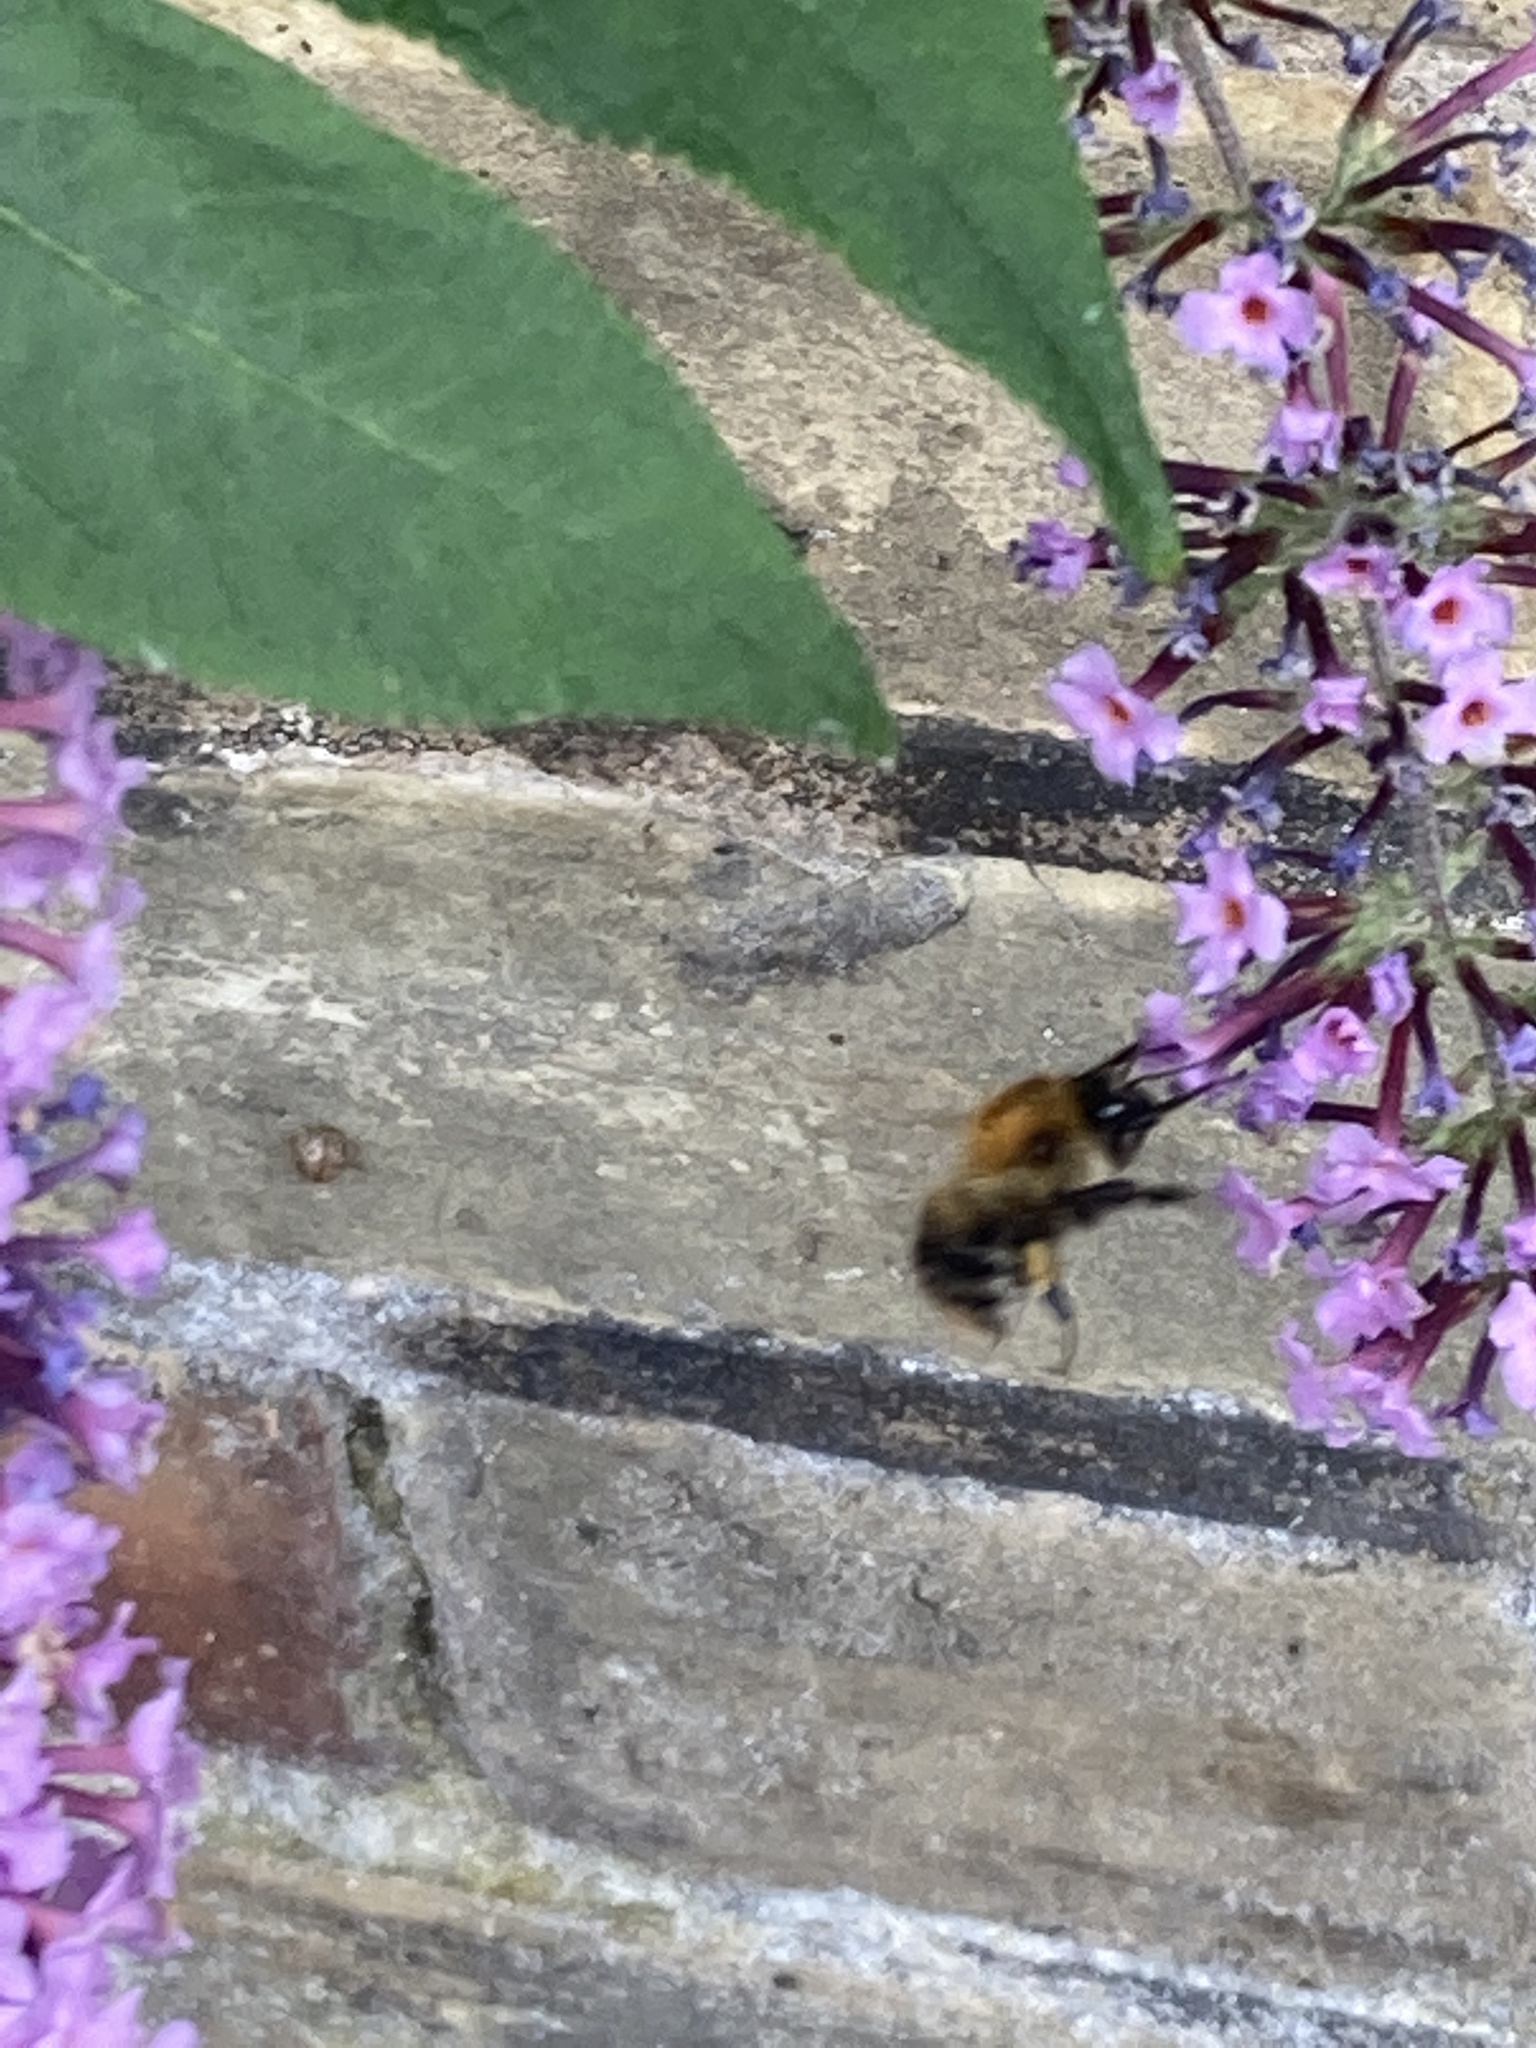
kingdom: Animalia
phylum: Arthropoda
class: Insecta
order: Hymenoptera
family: Apidae
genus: Bombus
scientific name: Bombus pascuorum
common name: Common carder bee
